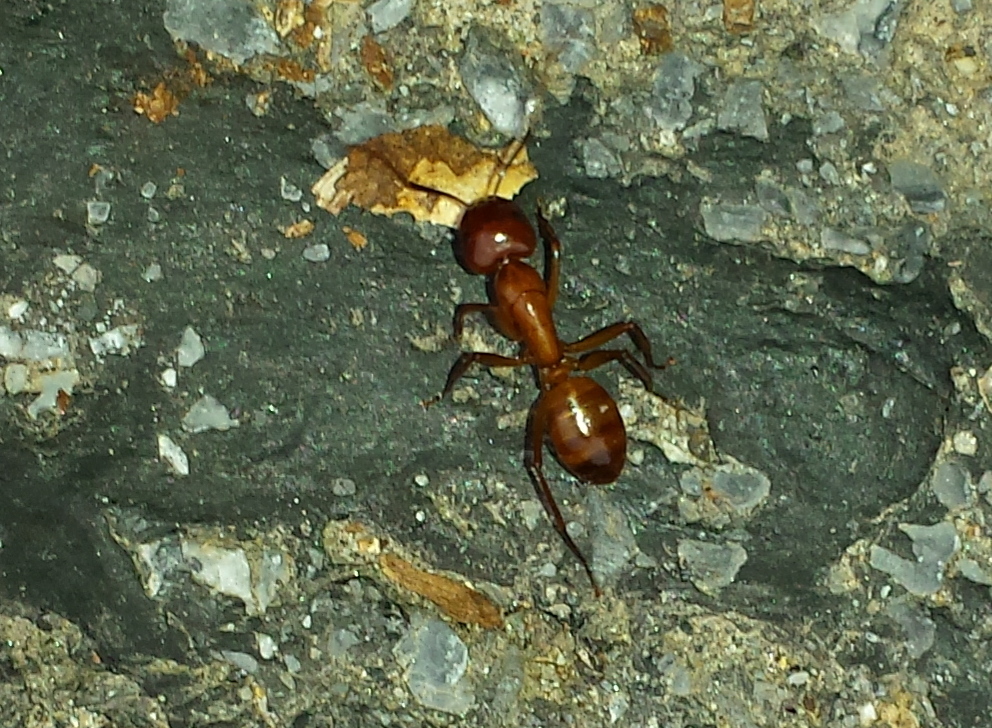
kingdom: Animalia
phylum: Arthropoda
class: Insecta
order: Hymenoptera
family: Formicidae
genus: Camponotus
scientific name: Camponotus castaneus
